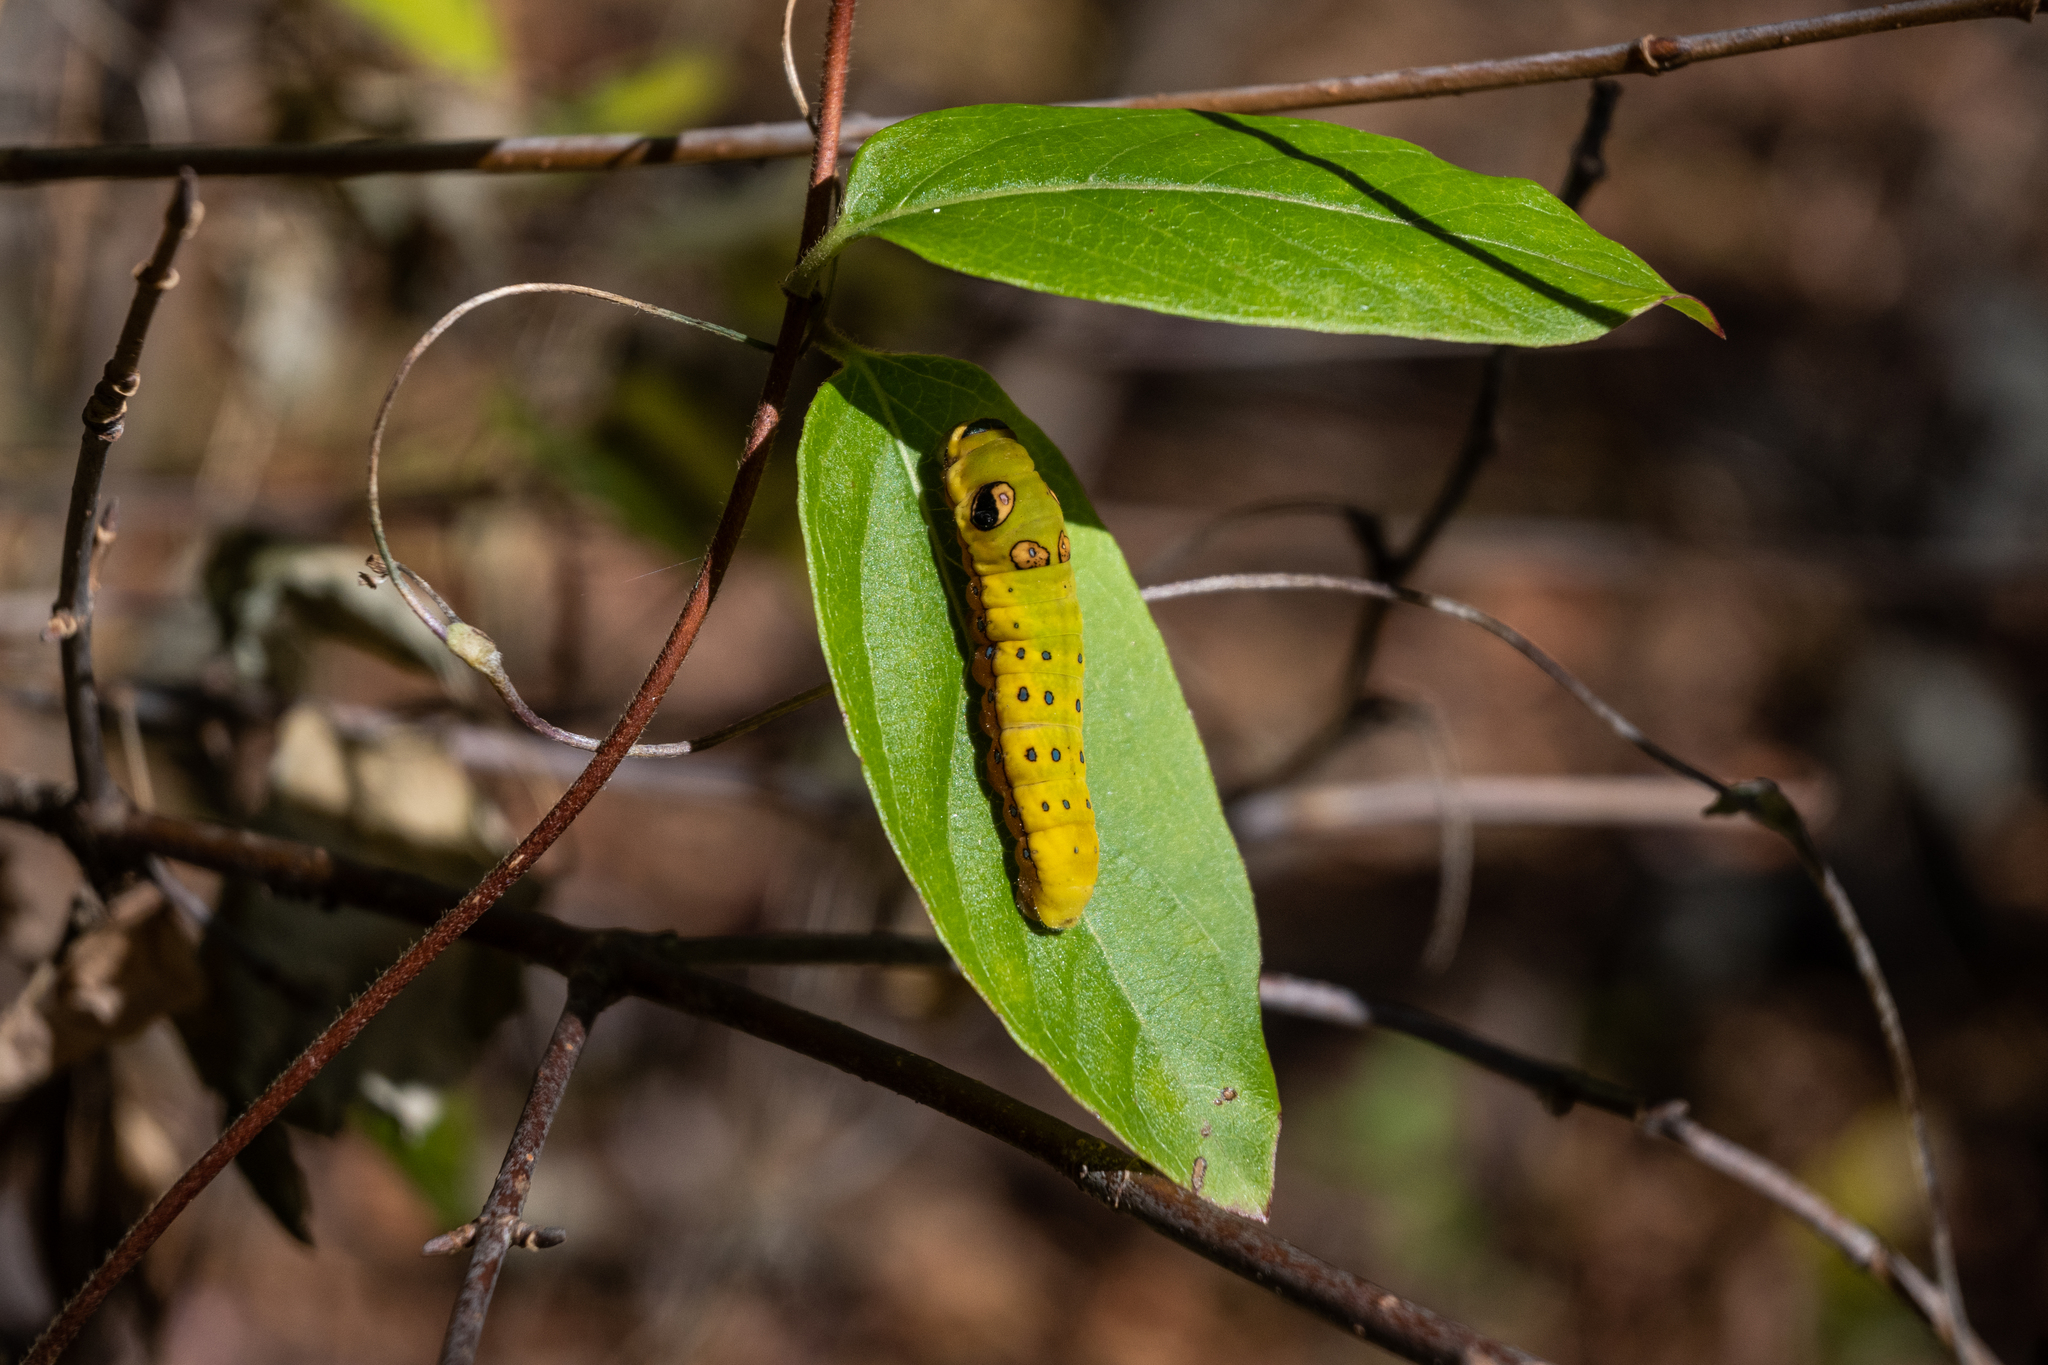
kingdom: Animalia
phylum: Arthropoda
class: Insecta
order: Lepidoptera
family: Papilionidae
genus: Papilio
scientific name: Papilio troilus
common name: Spicebush swallowtail
